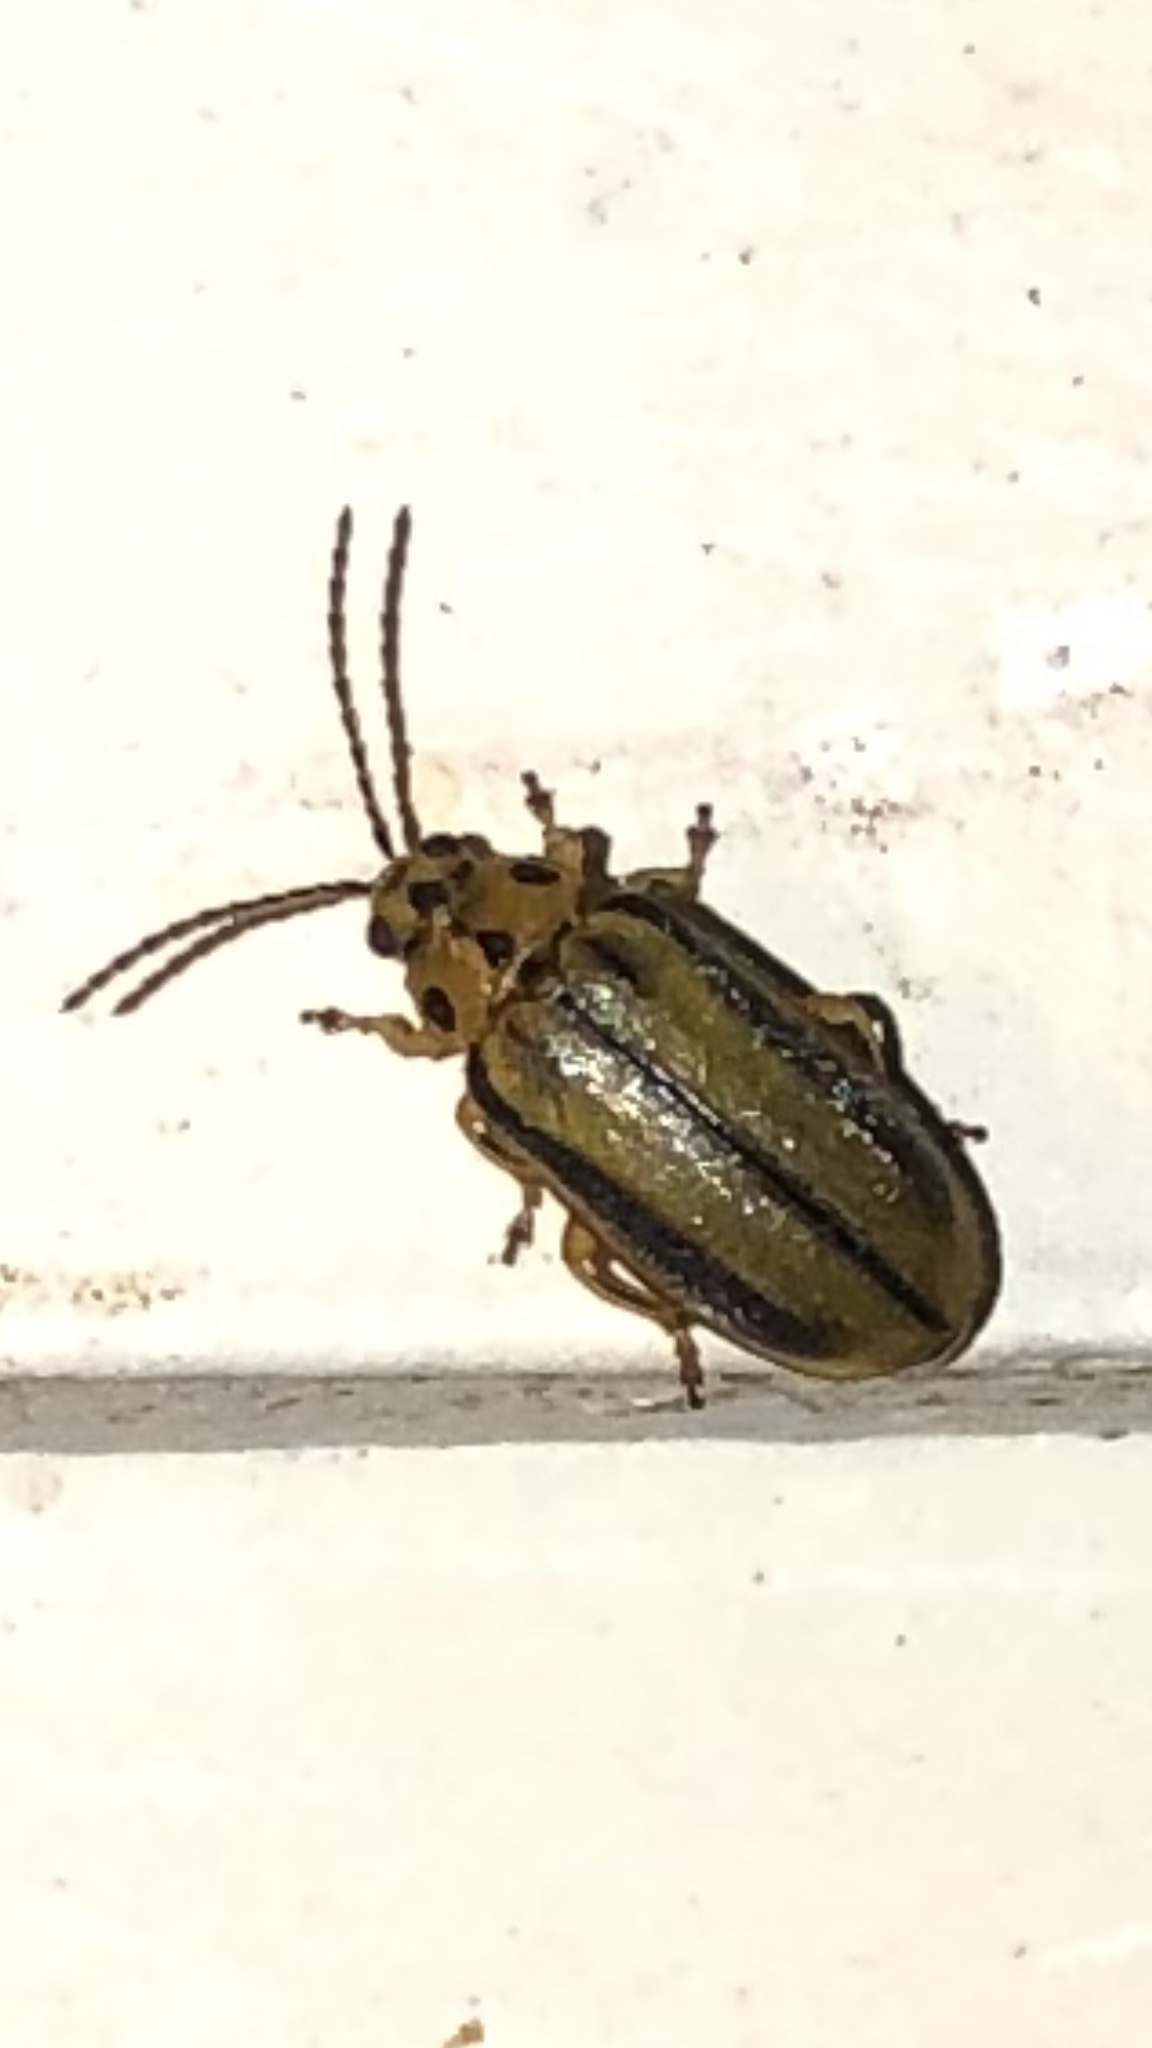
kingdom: Animalia
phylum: Arthropoda
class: Insecta
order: Coleoptera
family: Chrysomelidae
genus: Xanthogaleruca
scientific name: Xanthogaleruca luteola
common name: Elm leaf beetle
